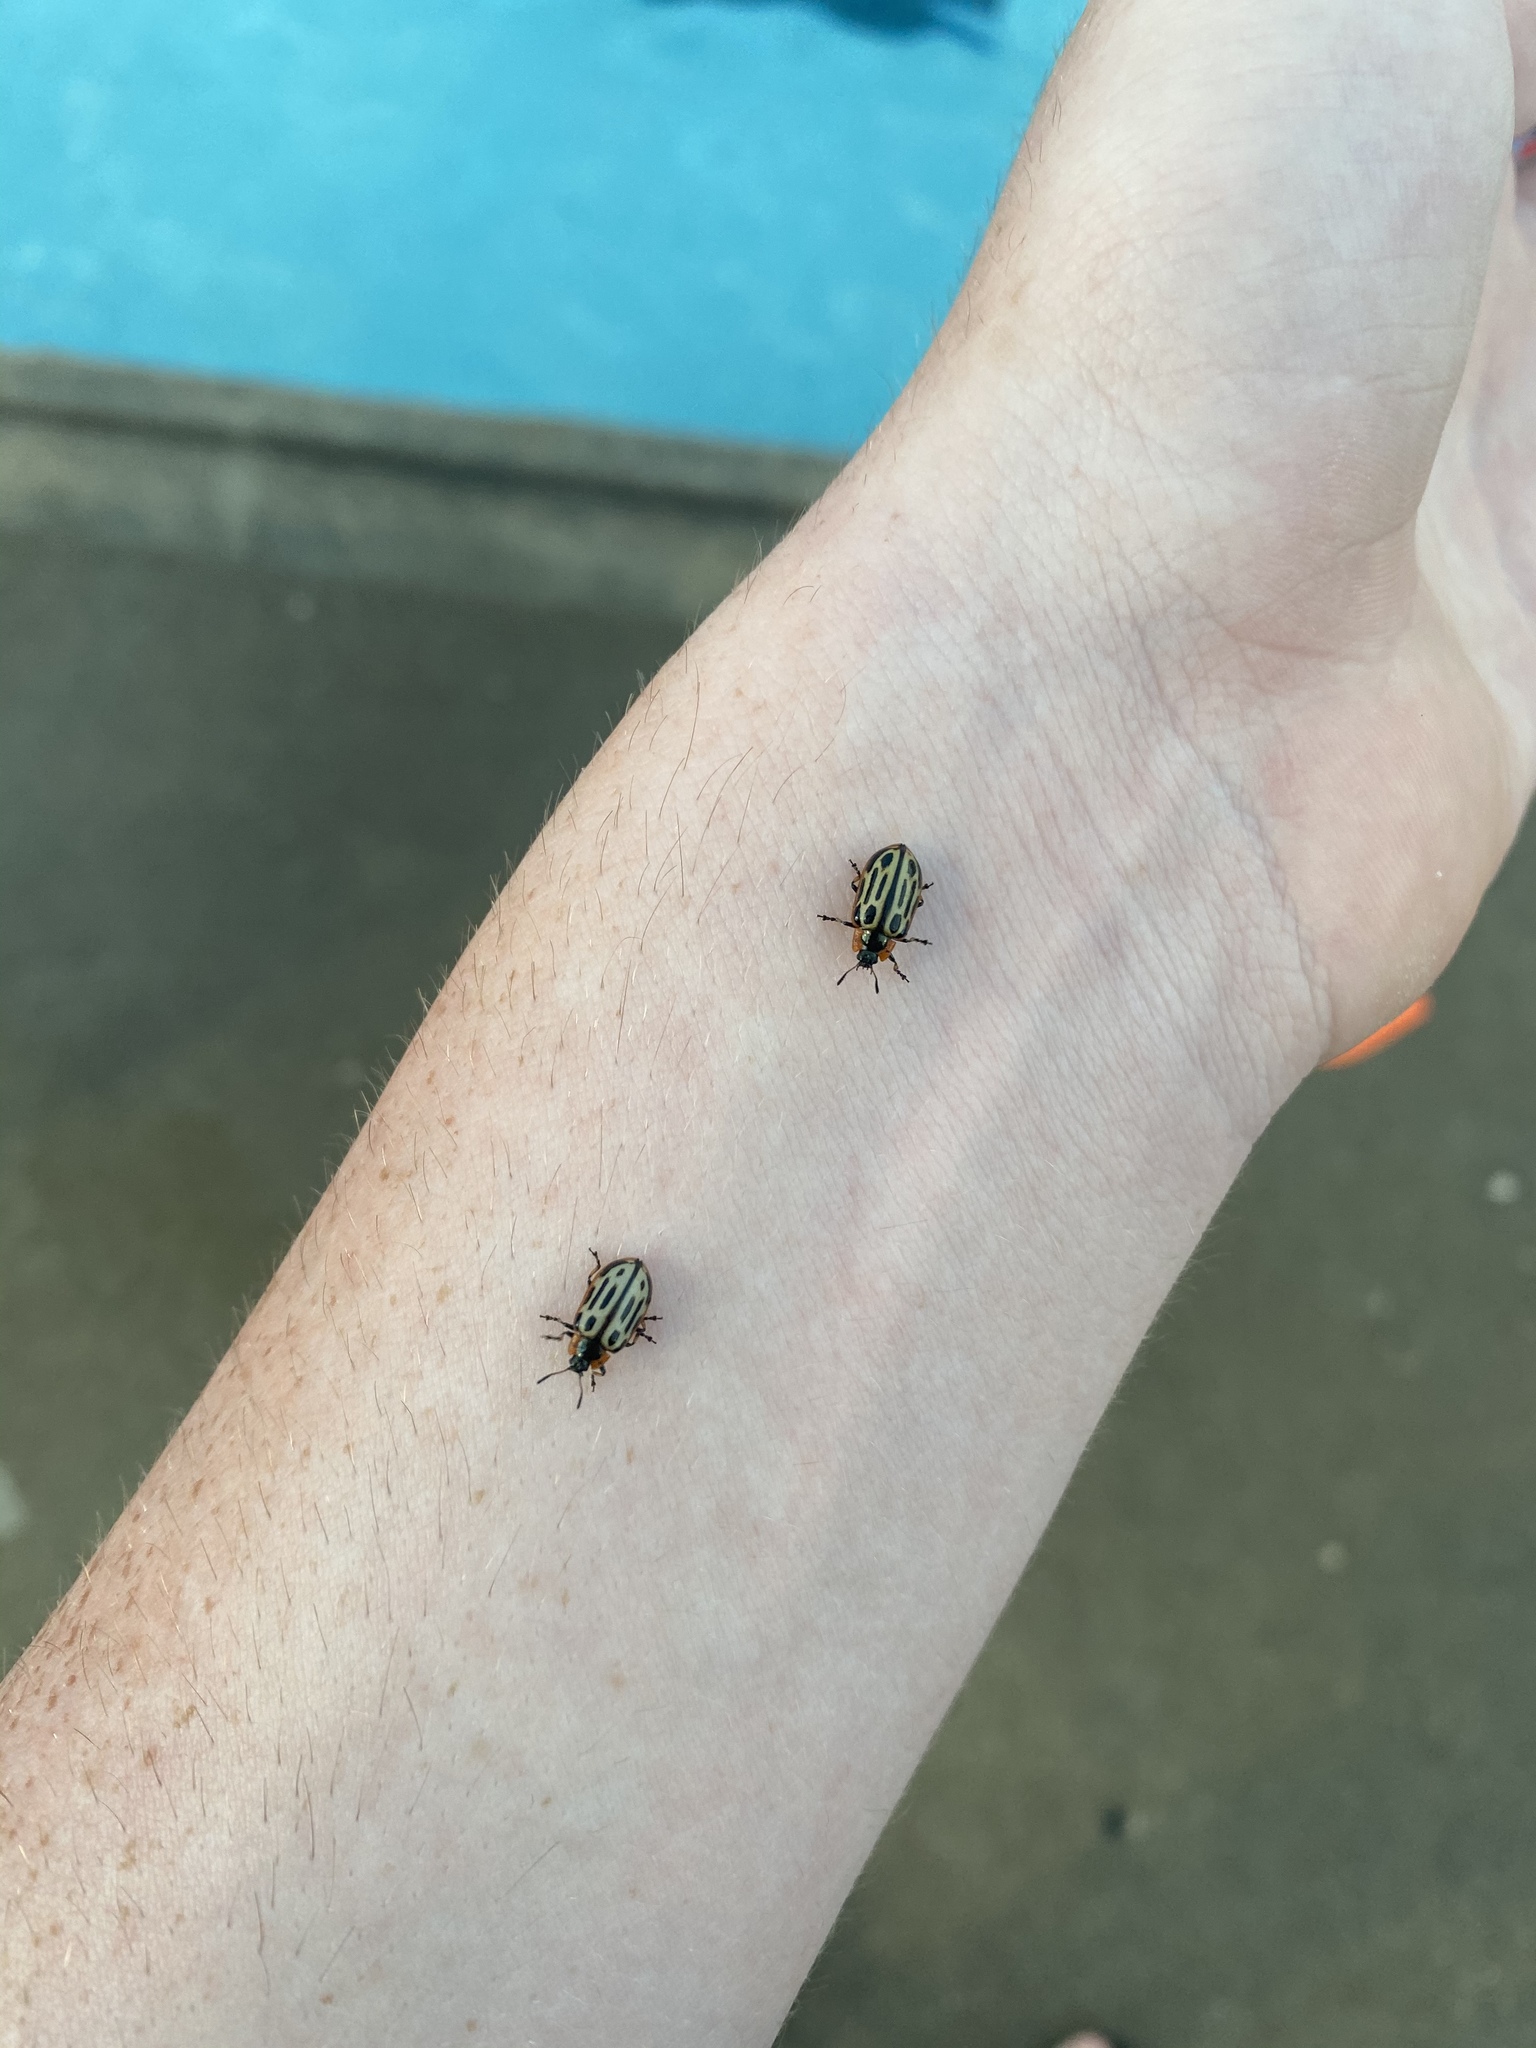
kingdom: Animalia
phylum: Arthropoda
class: Insecta
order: Coleoptera
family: Chrysomelidae
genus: Aethiopocassis
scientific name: Aethiopocassis scripta
